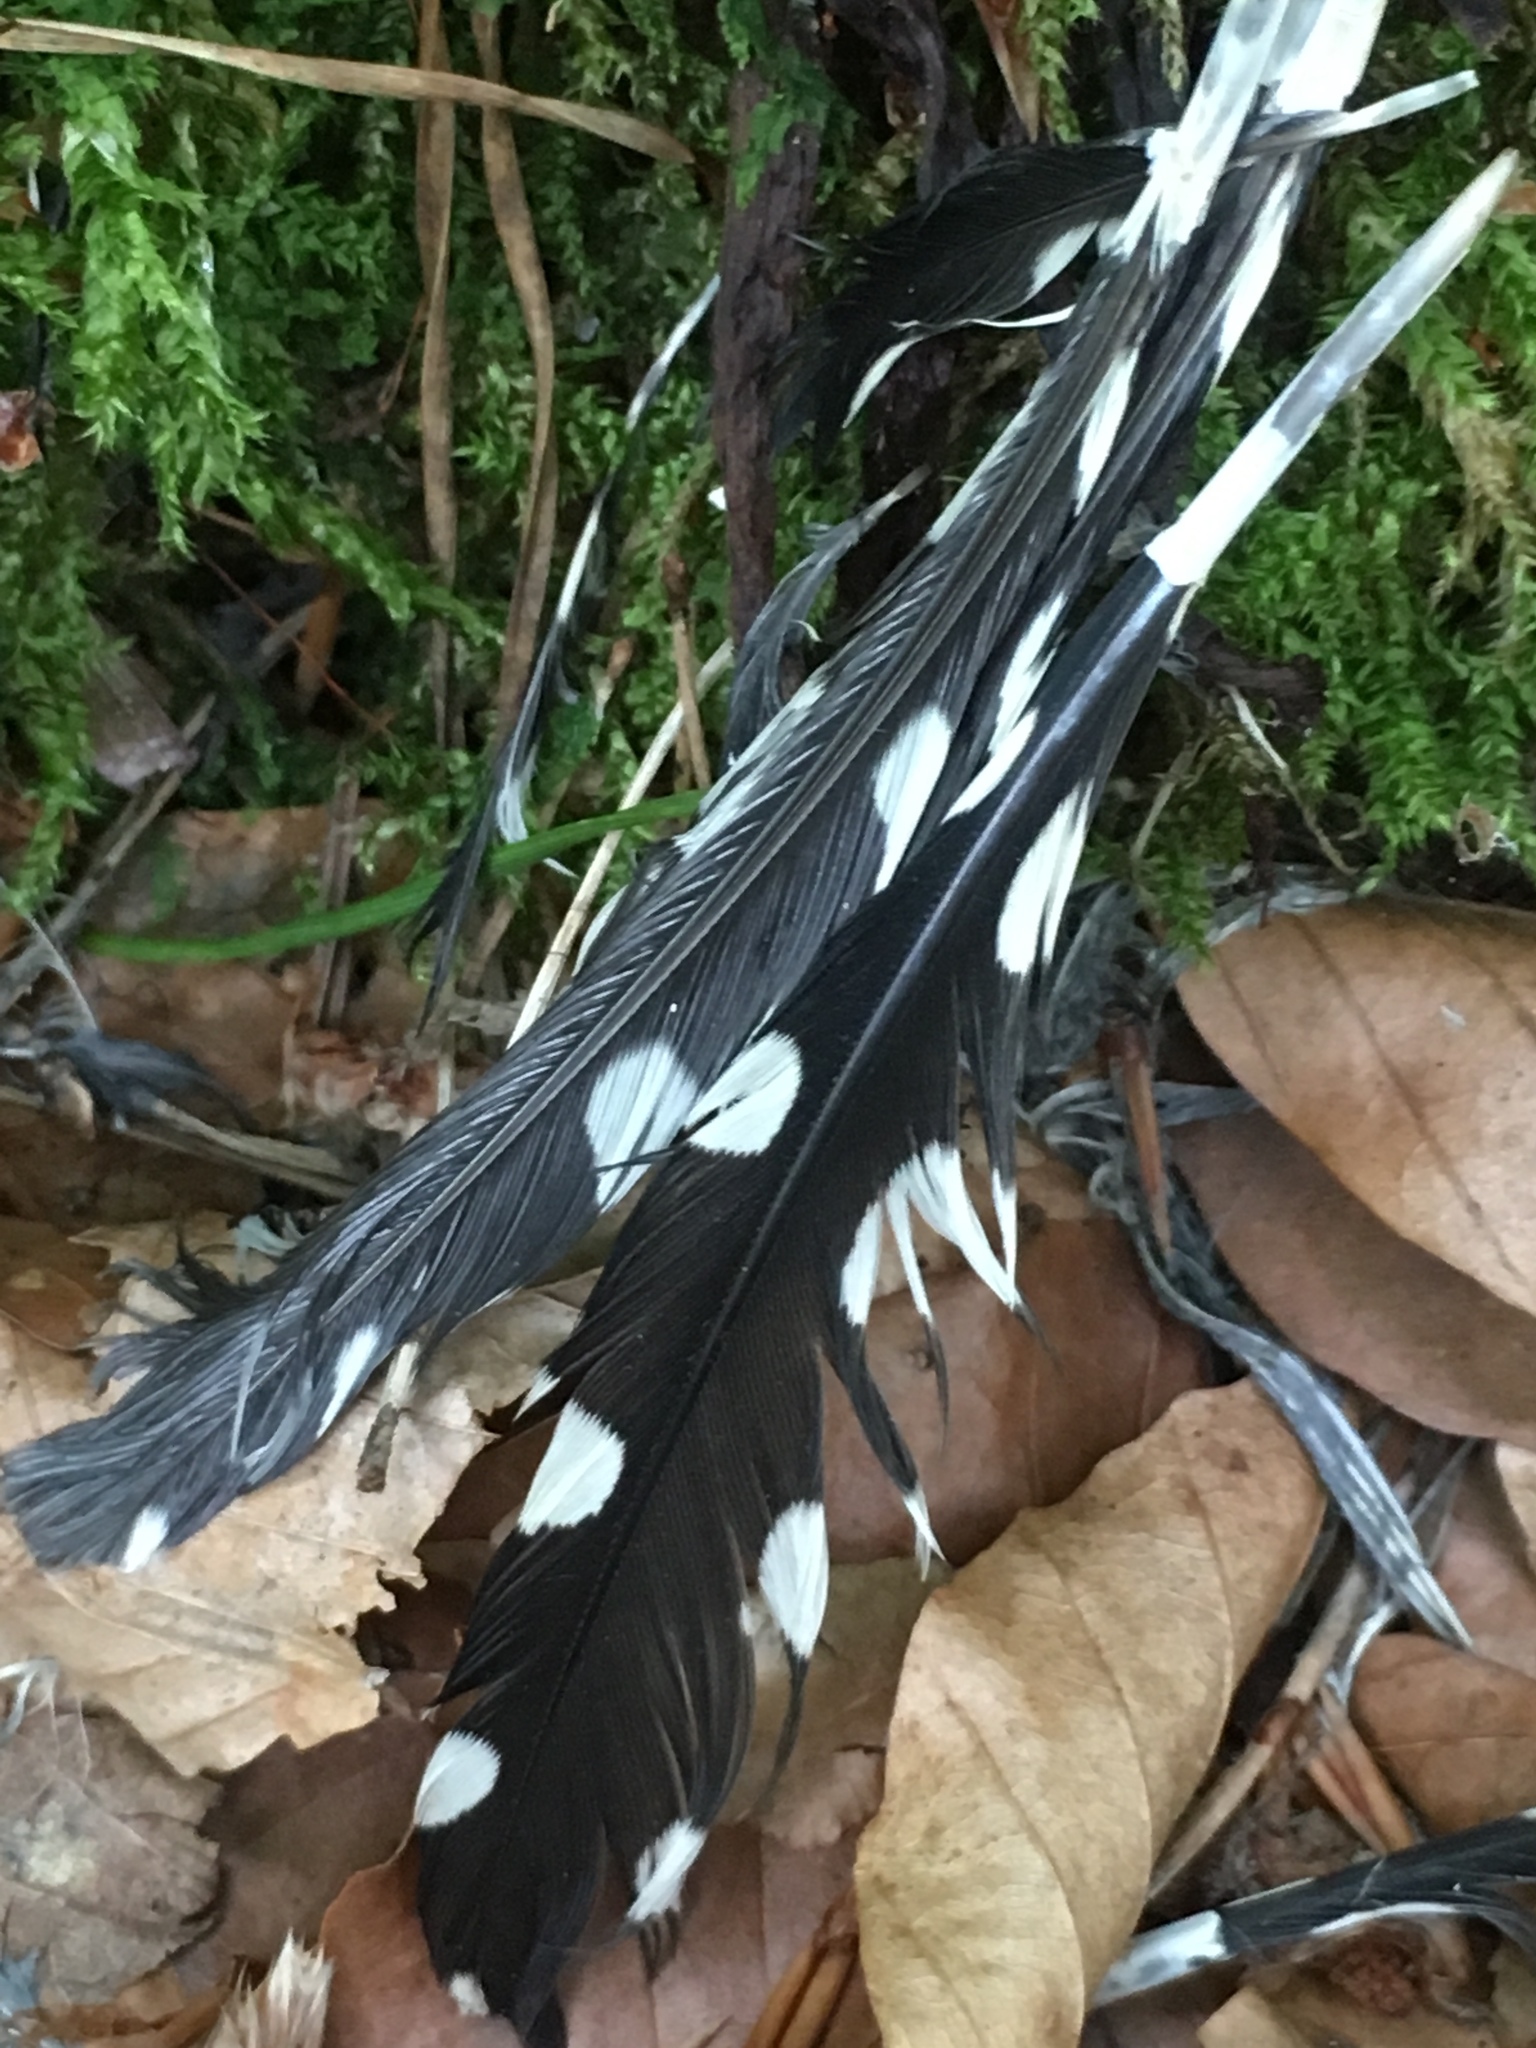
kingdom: Animalia
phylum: Chordata
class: Aves
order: Piciformes
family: Picidae
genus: Dendrocopos
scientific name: Dendrocopos major
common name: Great spotted woodpecker
